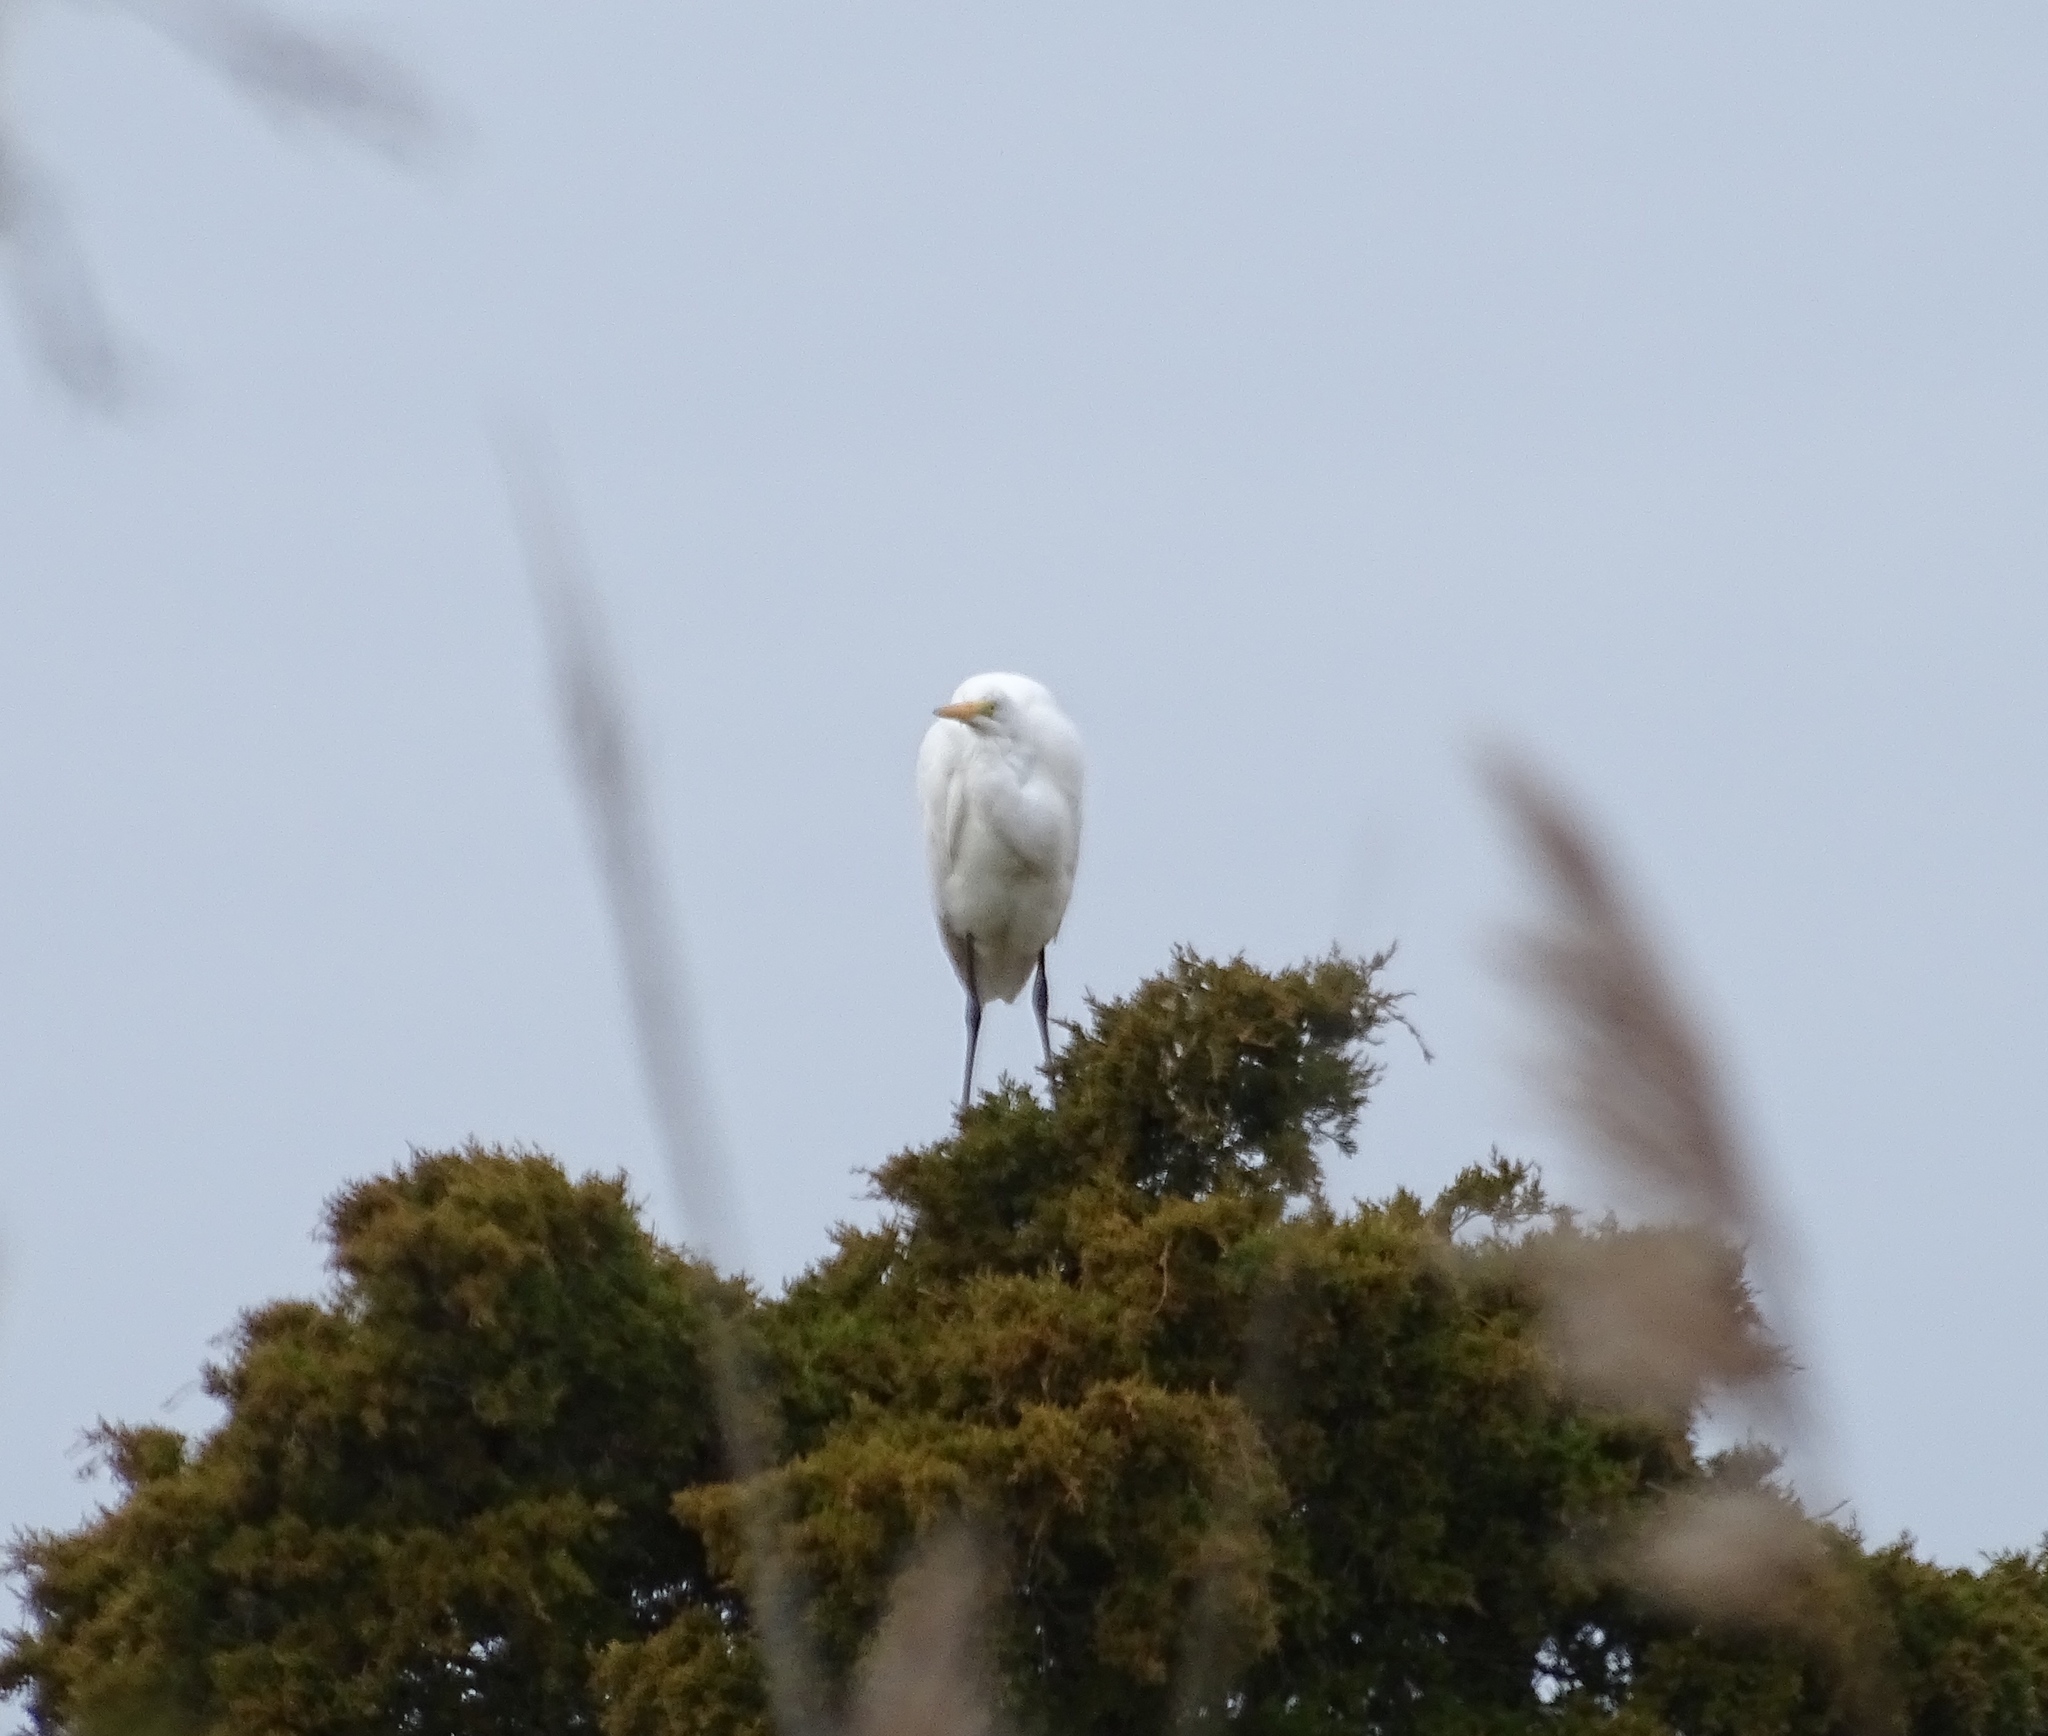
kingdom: Animalia
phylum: Chordata
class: Aves
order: Pelecaniformes
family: Ardeidae
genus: Ardea
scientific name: Ardea alba
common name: Great egret
